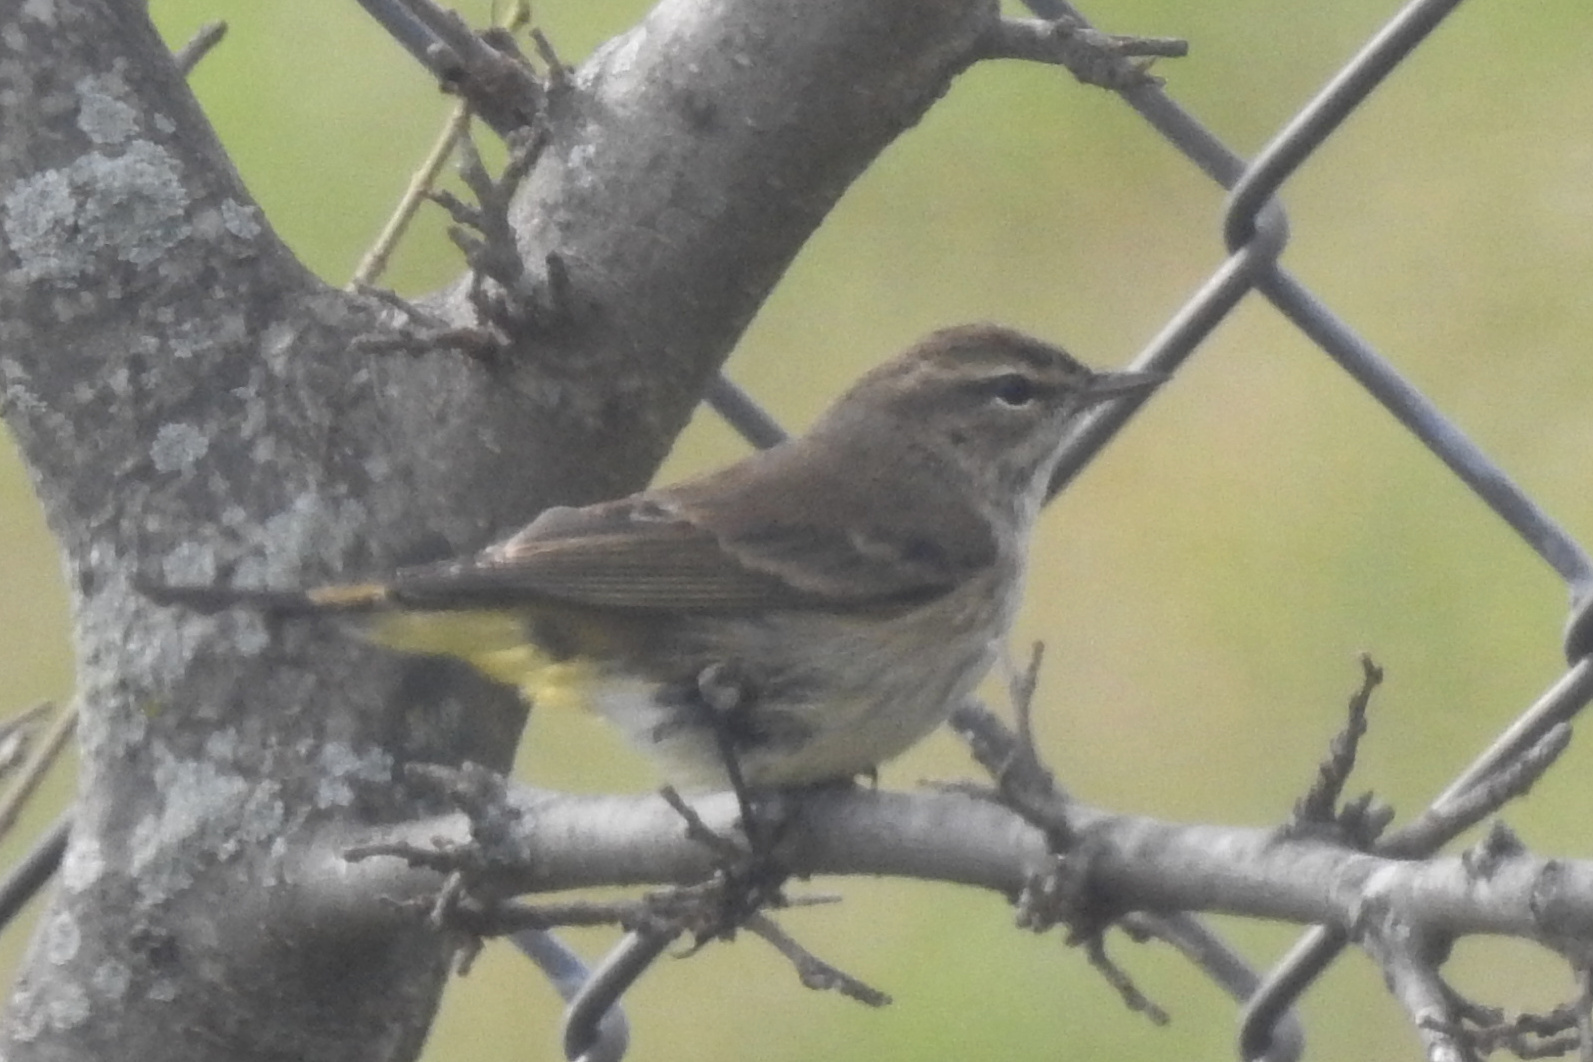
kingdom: Animalia
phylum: Chordata
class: Aves
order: Passeriformes
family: Parulidae
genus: Setophaga
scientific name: Setophaga palmarum
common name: Palm warbler
